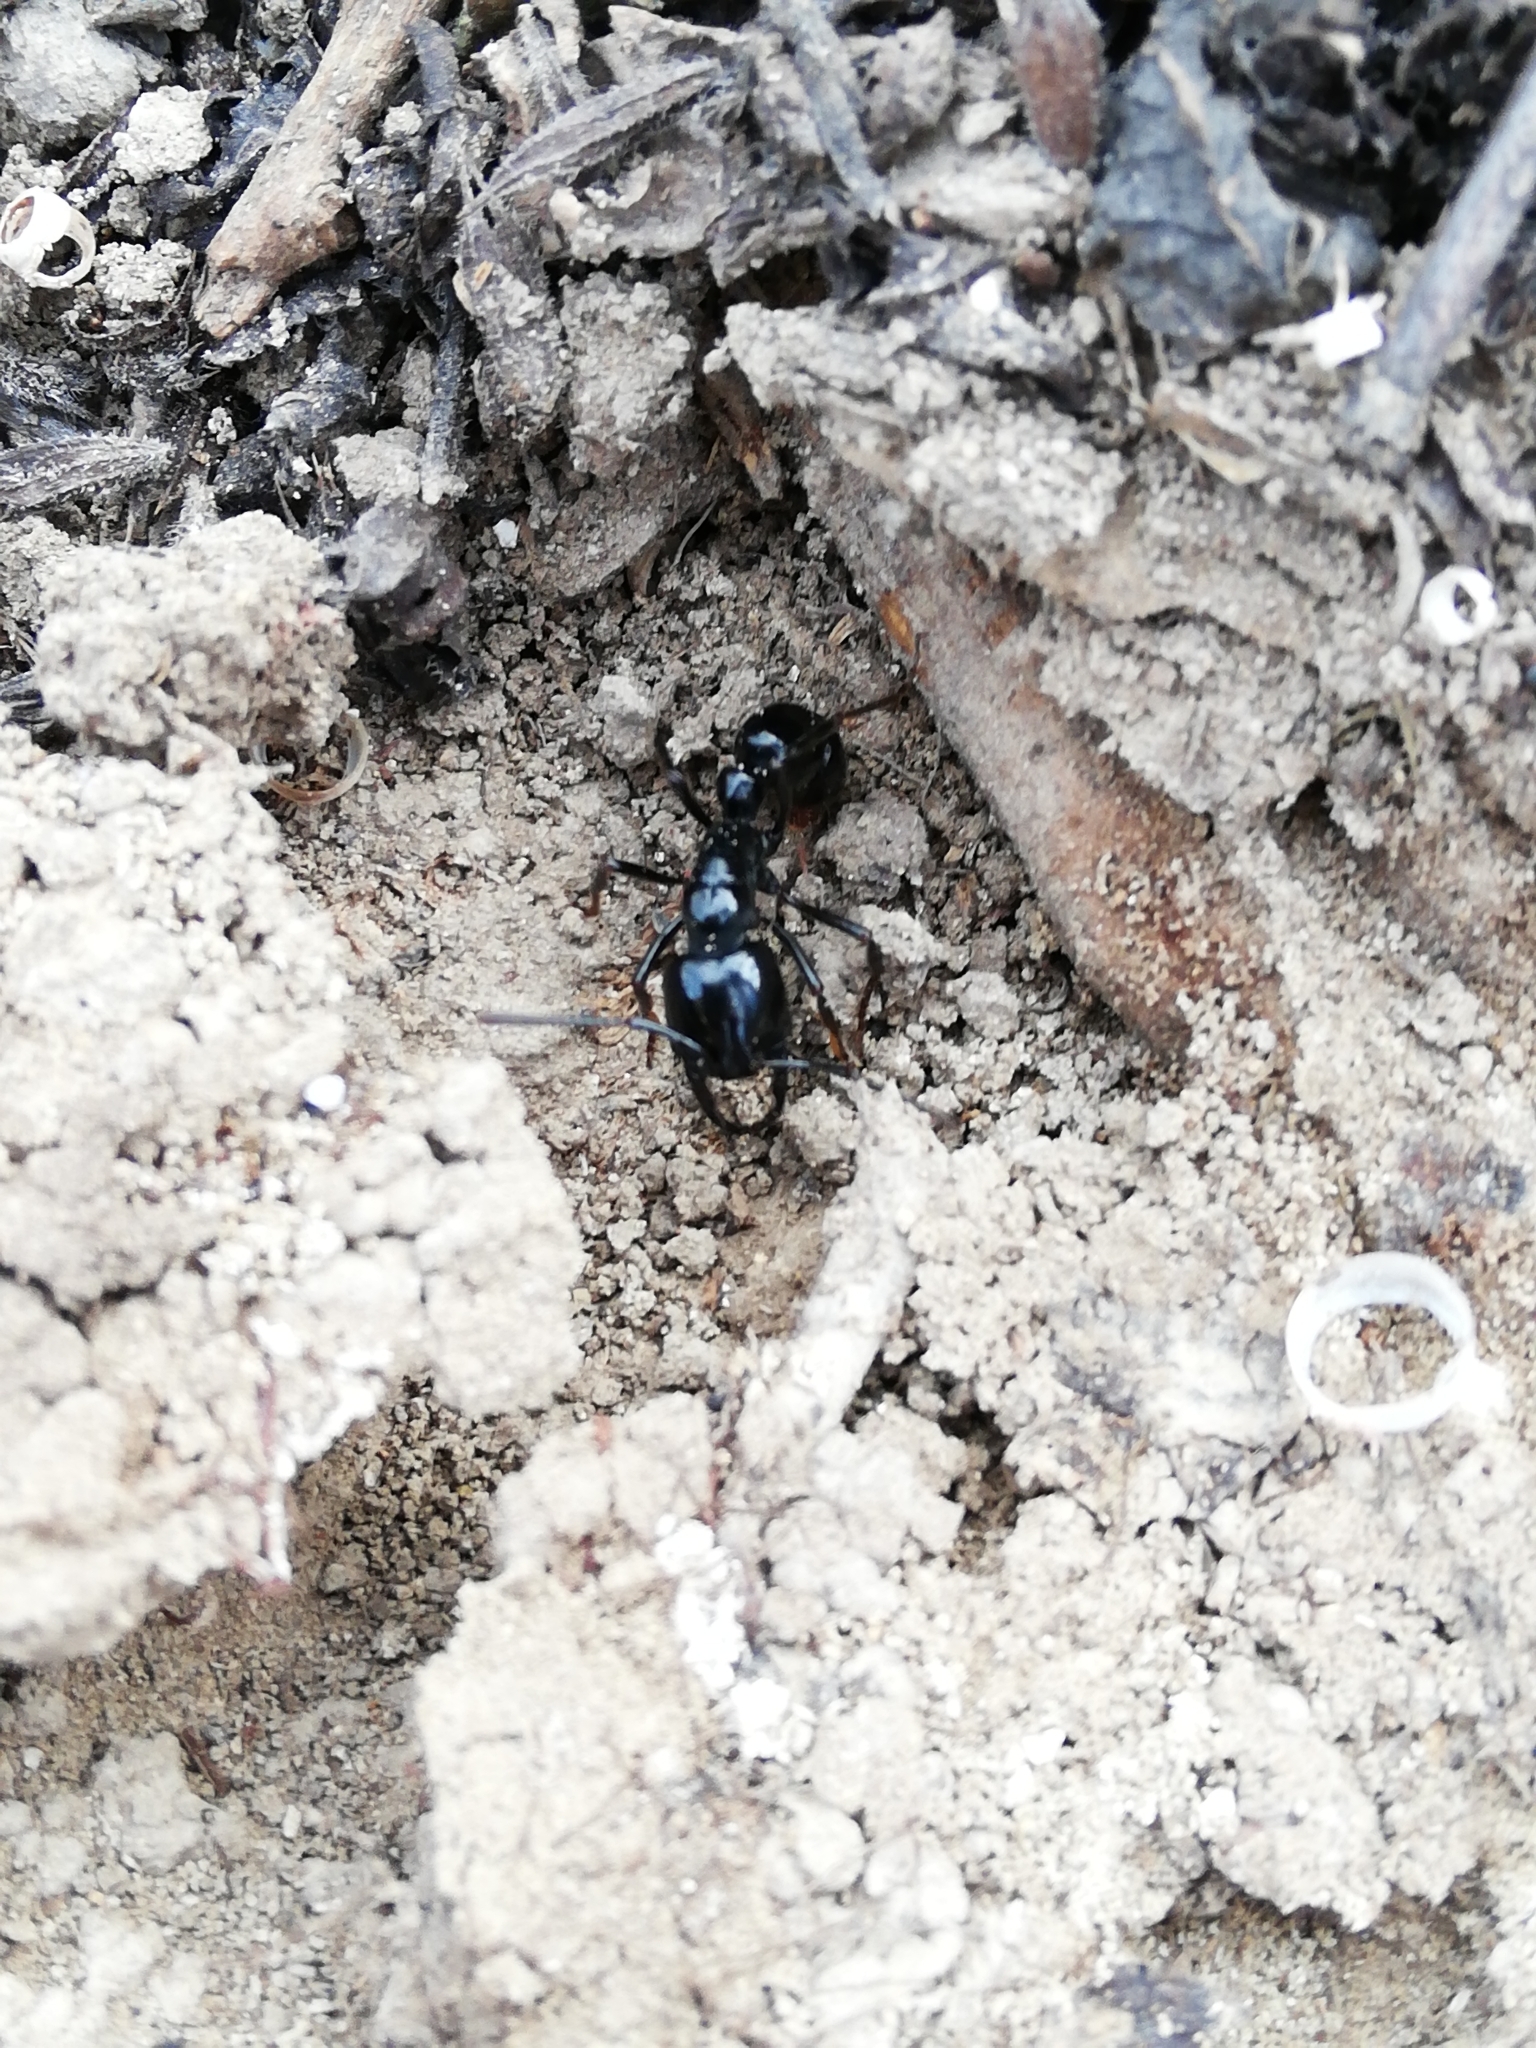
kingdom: Animalia
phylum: Arthropoda
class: Insecta
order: Hymenoptera
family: Formicidae
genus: Plectroctena
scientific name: Plectroctena mandibularis
